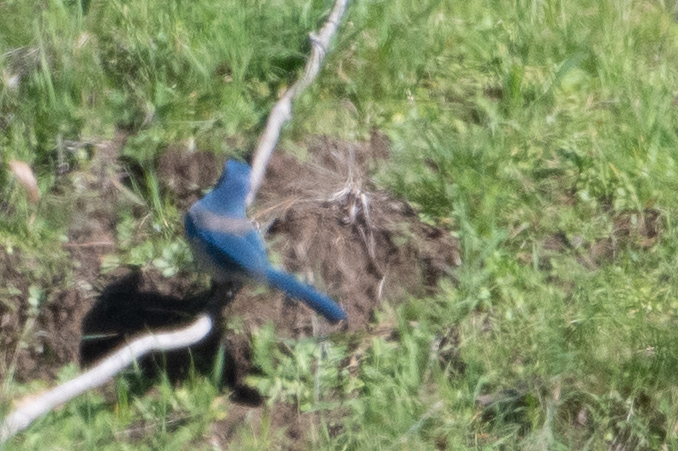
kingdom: Animalia
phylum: Chordata
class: Aves
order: Passeriformes
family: Corvidae
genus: Aphelocoma
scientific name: Aphelocoma californica
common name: California scrub-jay
